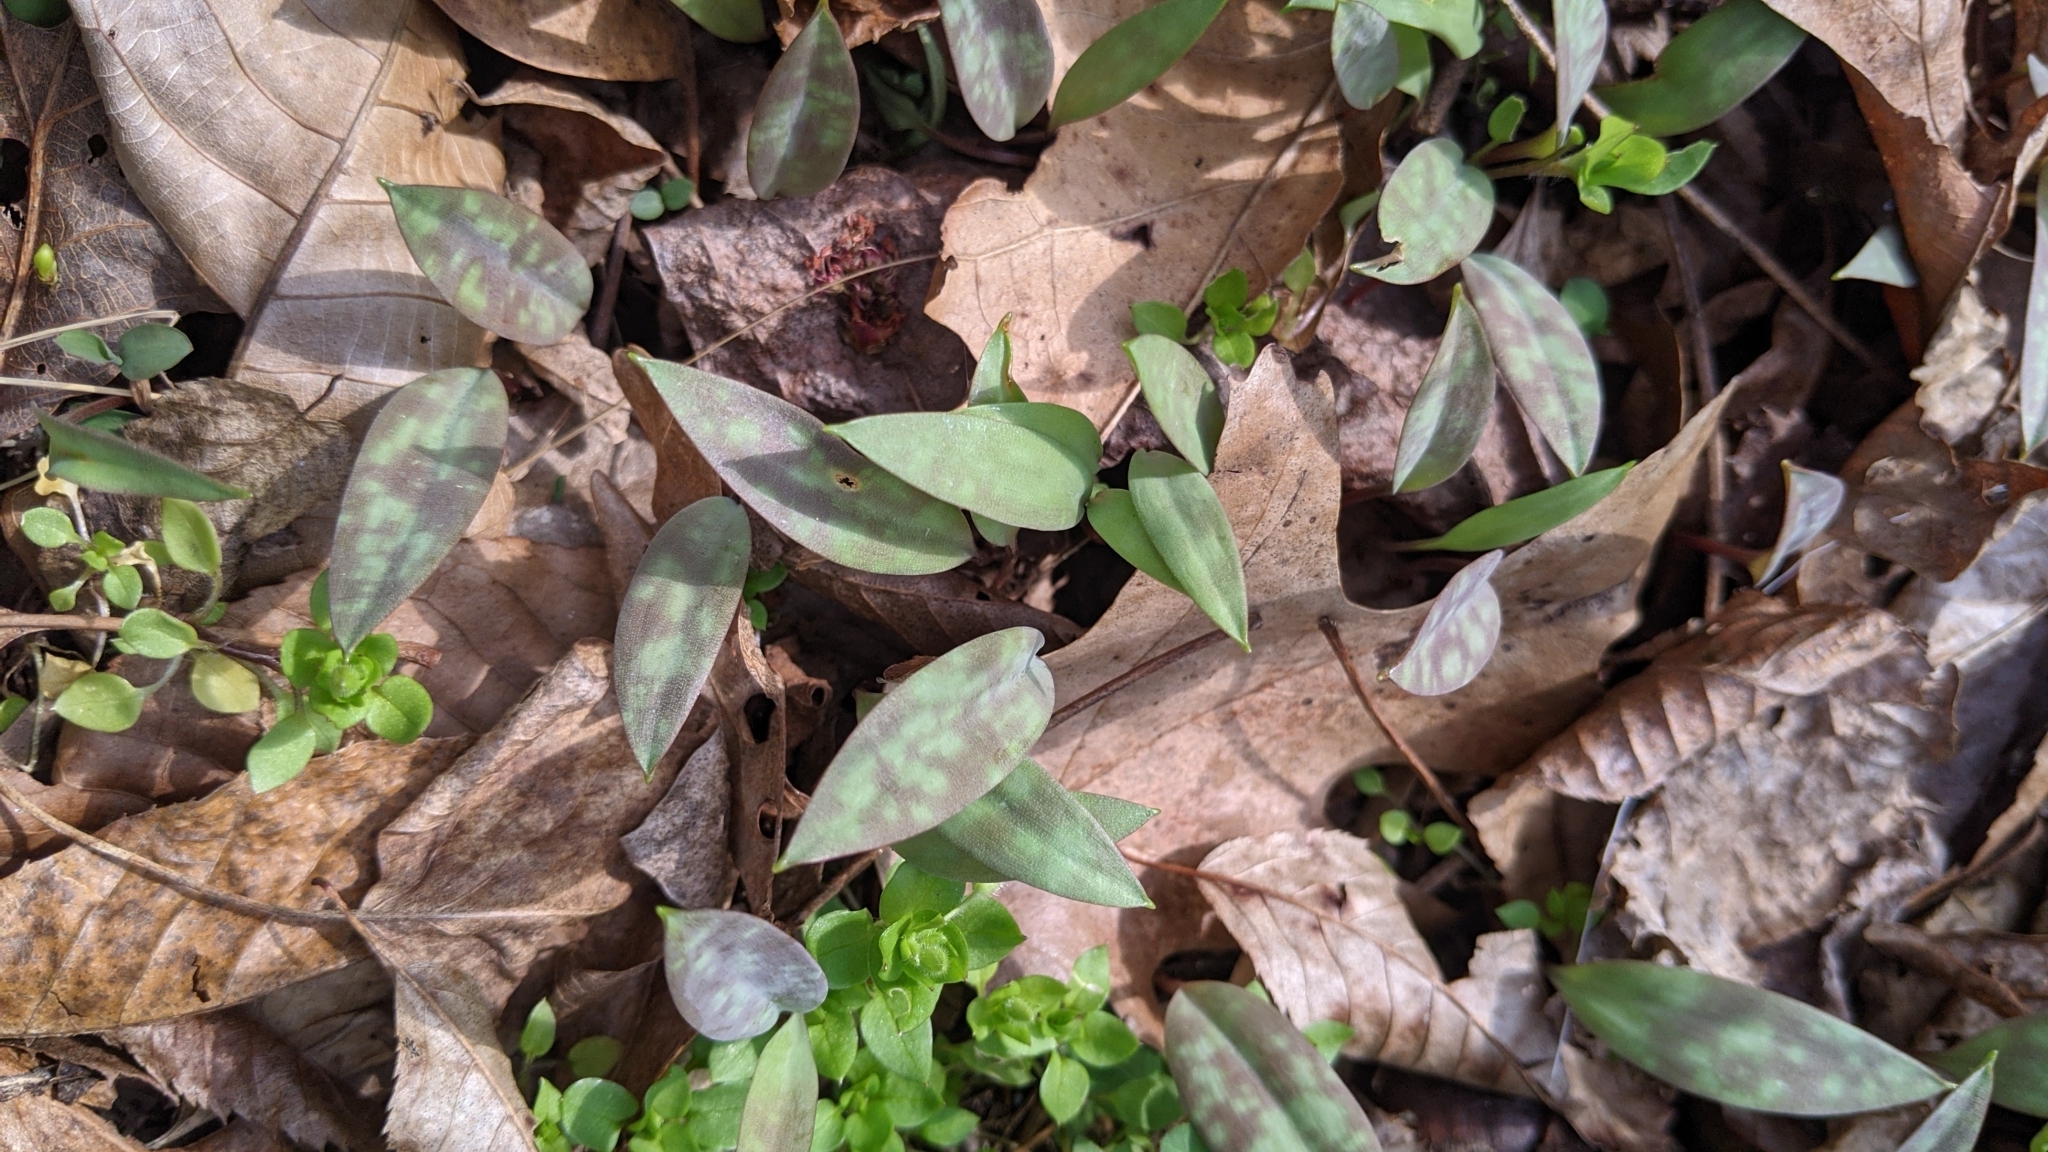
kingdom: Plantae
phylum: Tracheophyta
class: Liliopsida
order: Liliales
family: Liliaceae
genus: Erythronium
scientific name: Erythronium americanum
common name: Yellow adder's-tongue
